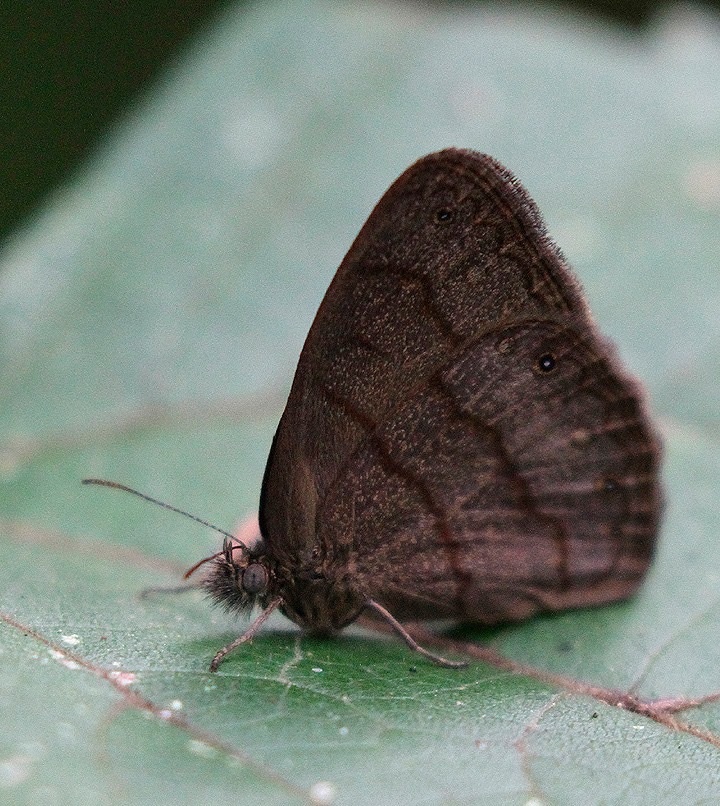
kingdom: Animalia
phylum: Arthropoda
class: Insecta
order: Lepidoptera
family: Nymphalidae
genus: Hermeuptychia
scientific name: Hermeuptychia hermes
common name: Hermes satyr
